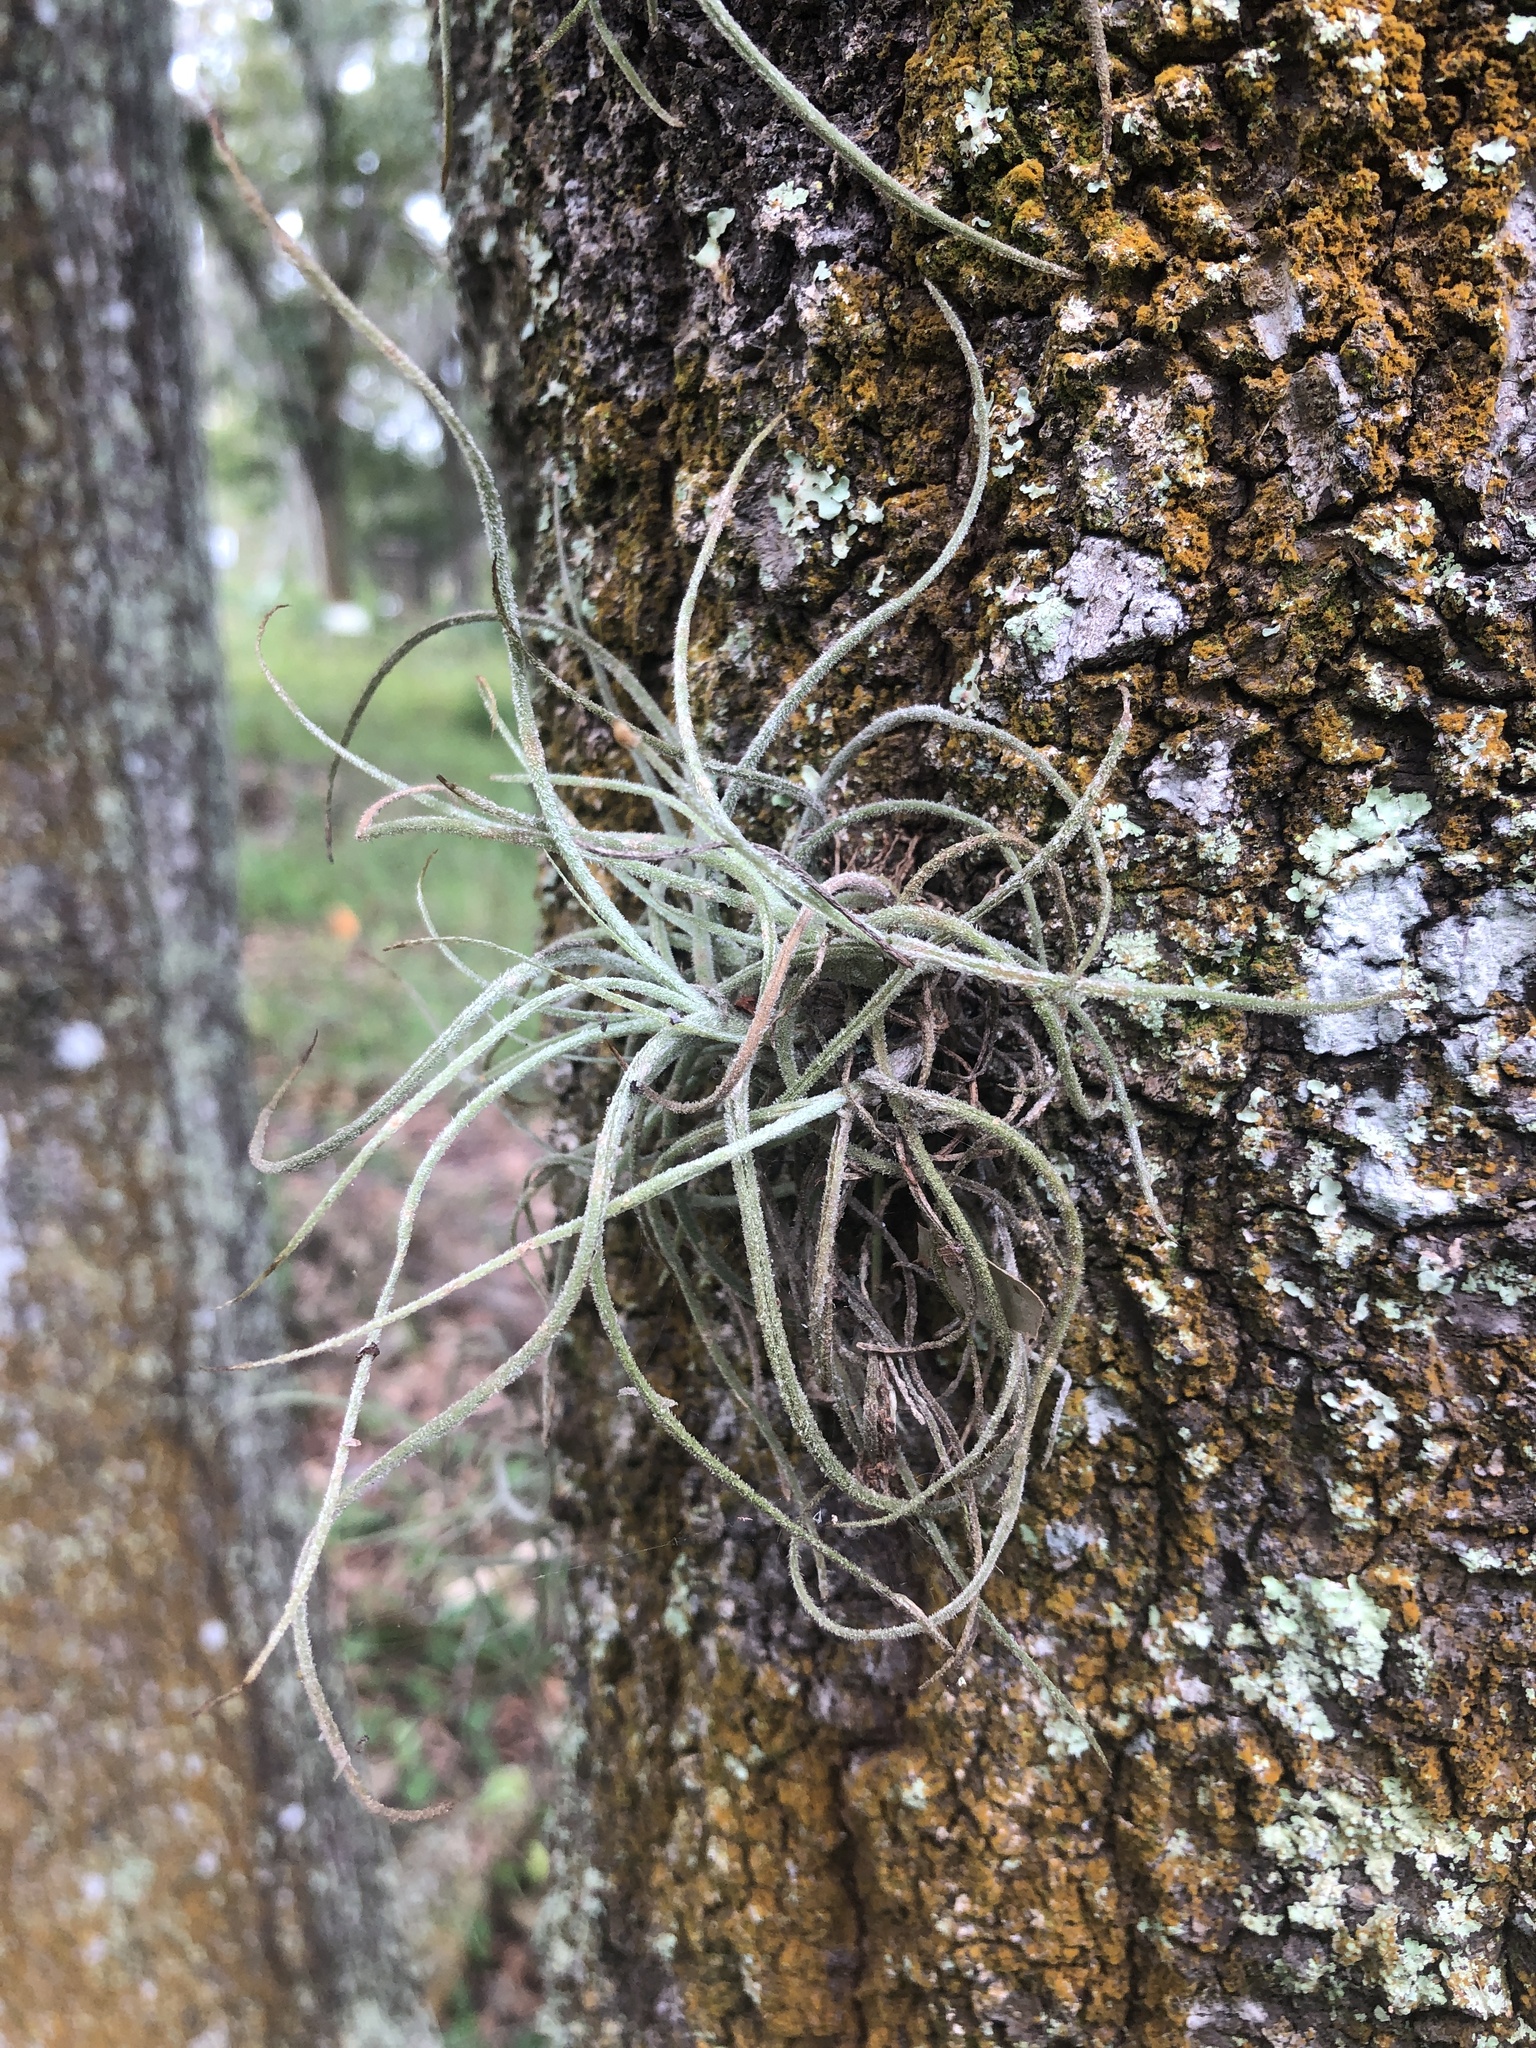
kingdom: Plantae
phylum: Tracheophyta
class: Liliopsida
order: Poales
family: Bromeliaceae
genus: Tillandsia
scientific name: Tillandsia recurvata
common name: Small ballmoss
